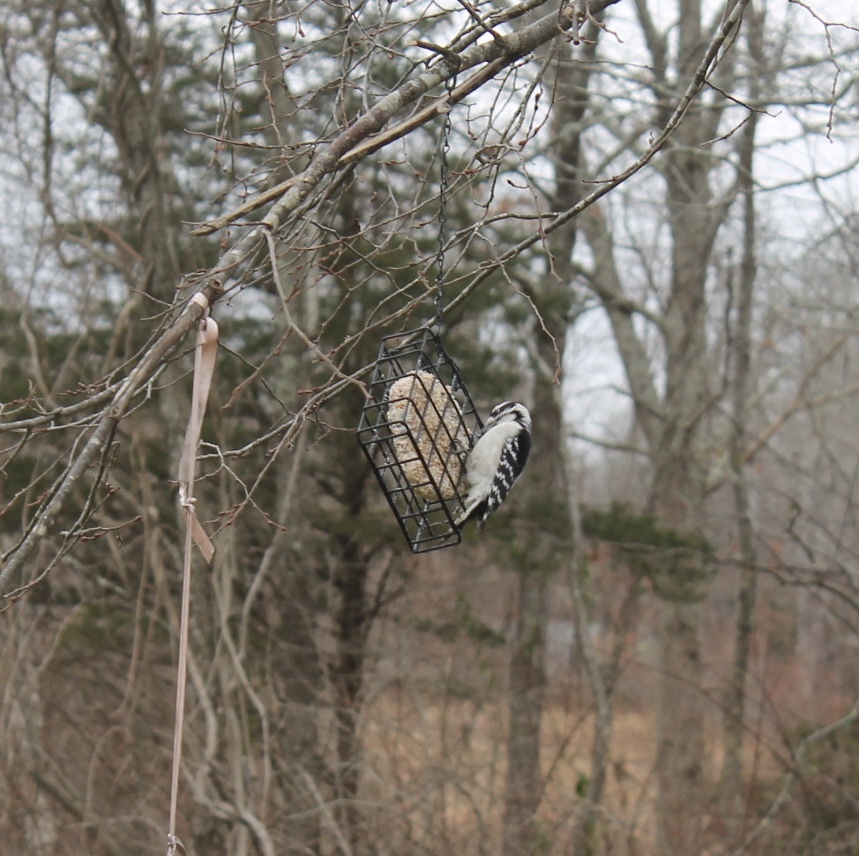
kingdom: Animalia
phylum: Chordata
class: Aves
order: Piciformes
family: Picidae
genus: Dryobates
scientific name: Dryobates pubescens
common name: Downy woodpecker
